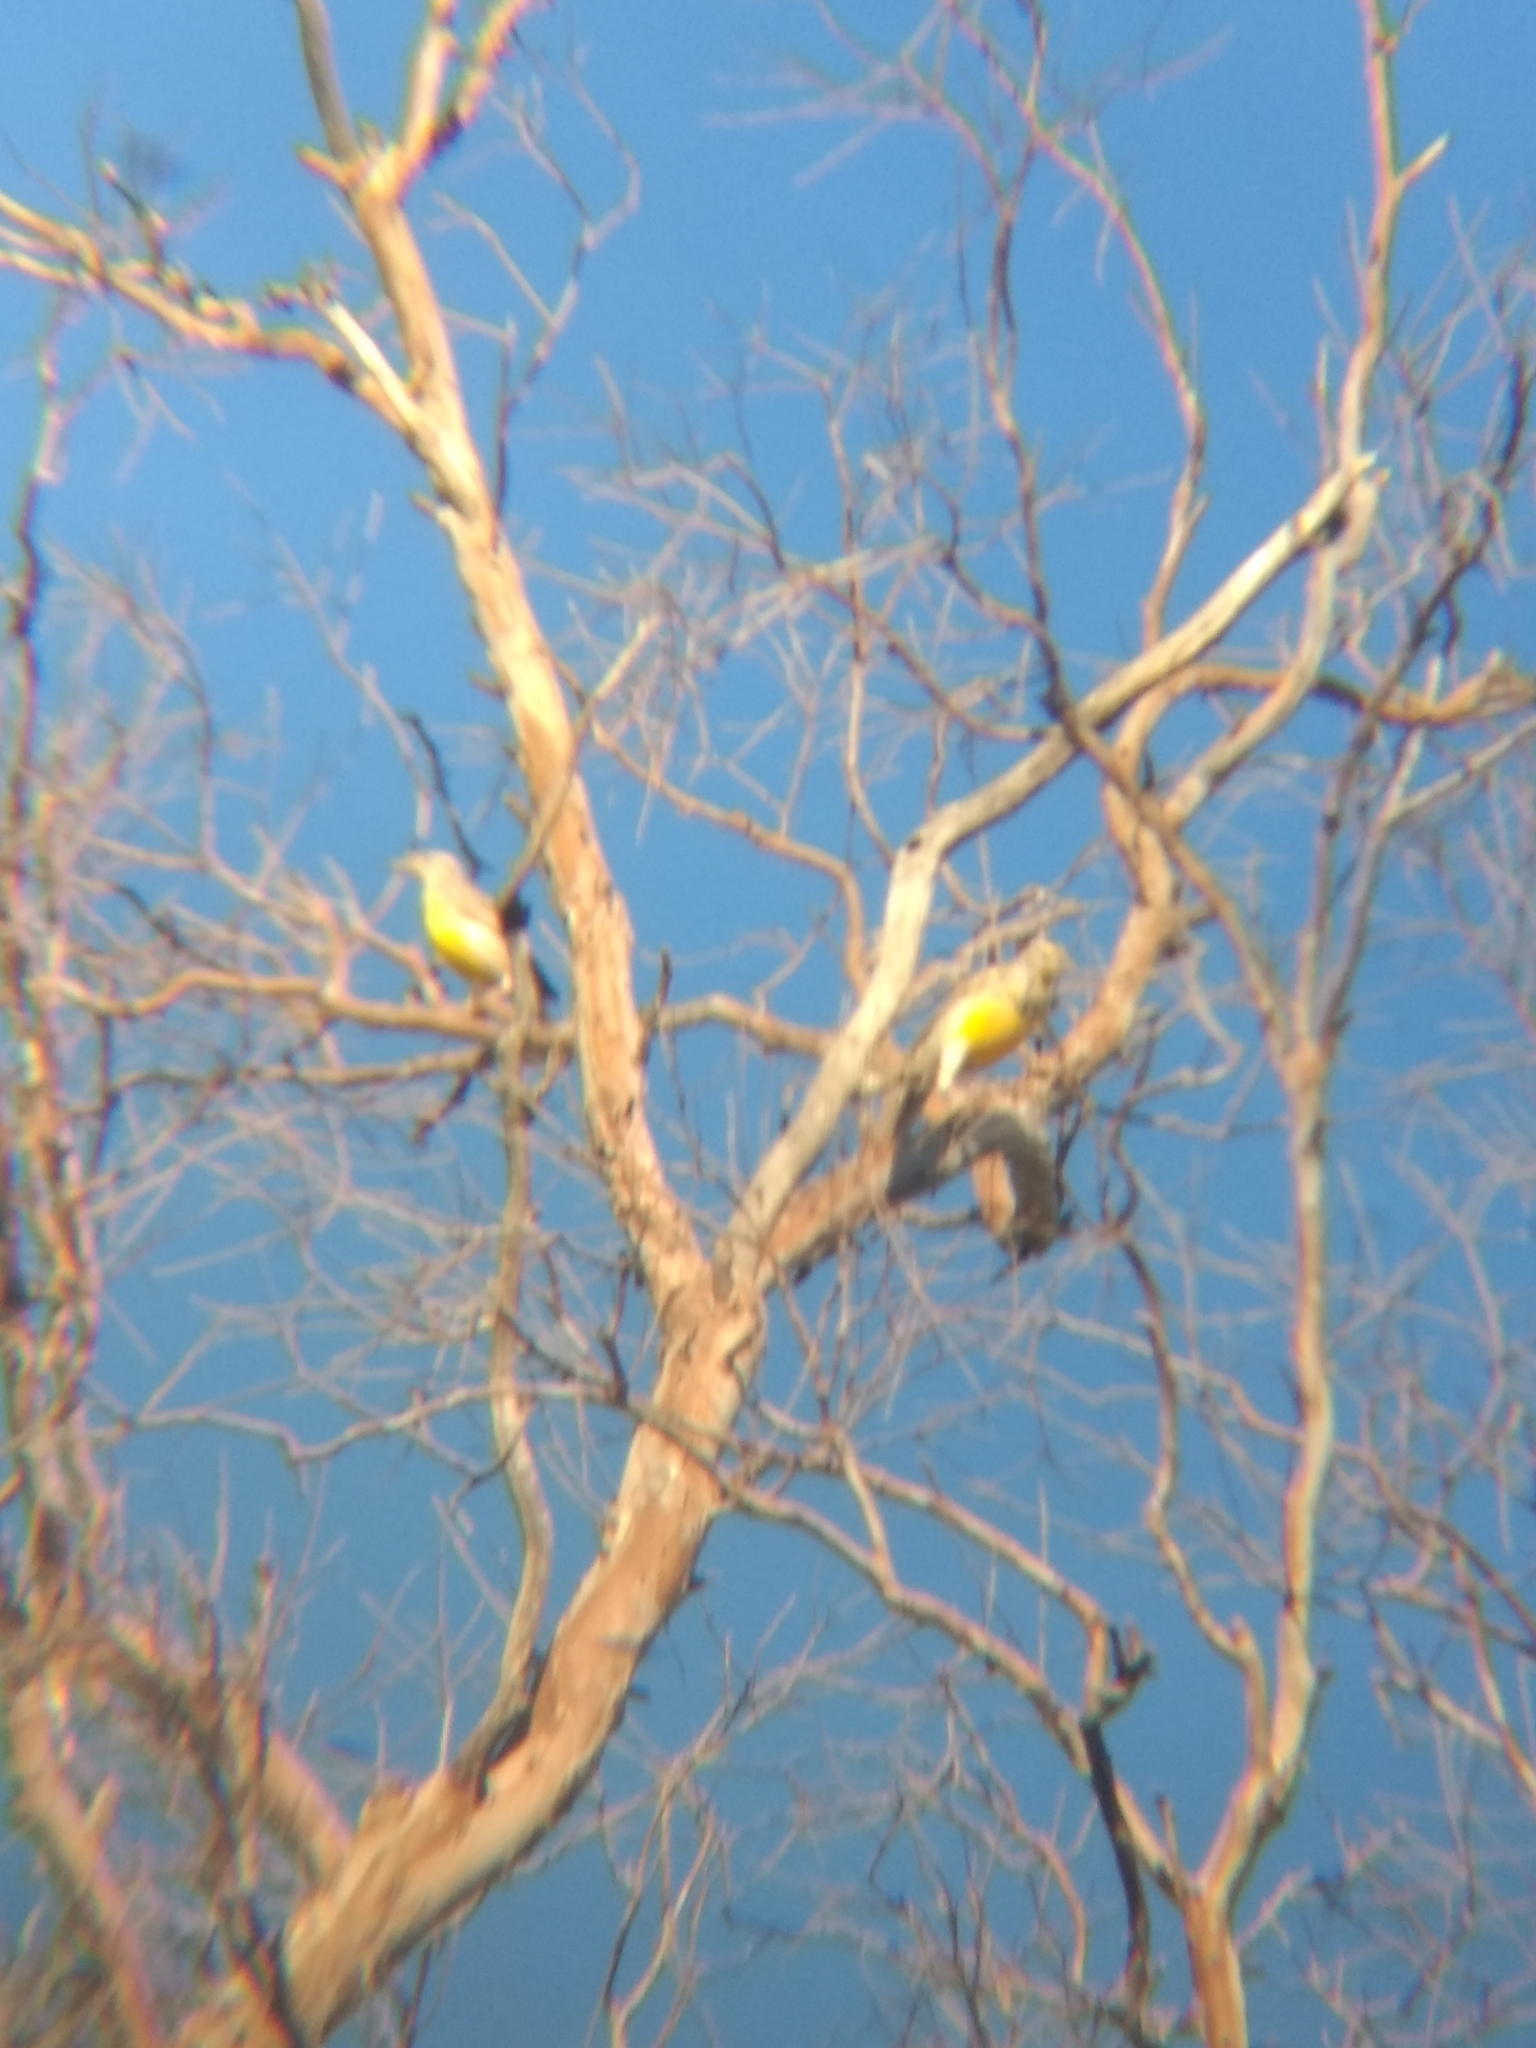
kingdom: Animalia
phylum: Chordata
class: Aves
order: Passeriformes
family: Icteridae
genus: Sturnella
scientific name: Sturnella neglecta
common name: Western meadowlark
